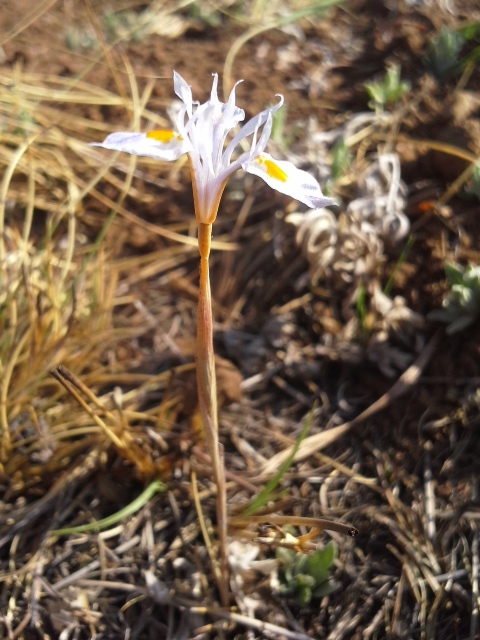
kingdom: Plantae
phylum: Tracheophyta
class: Liliopsida
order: Asparagales
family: Iridaceae
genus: Moraea
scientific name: Moraea thomsonii
